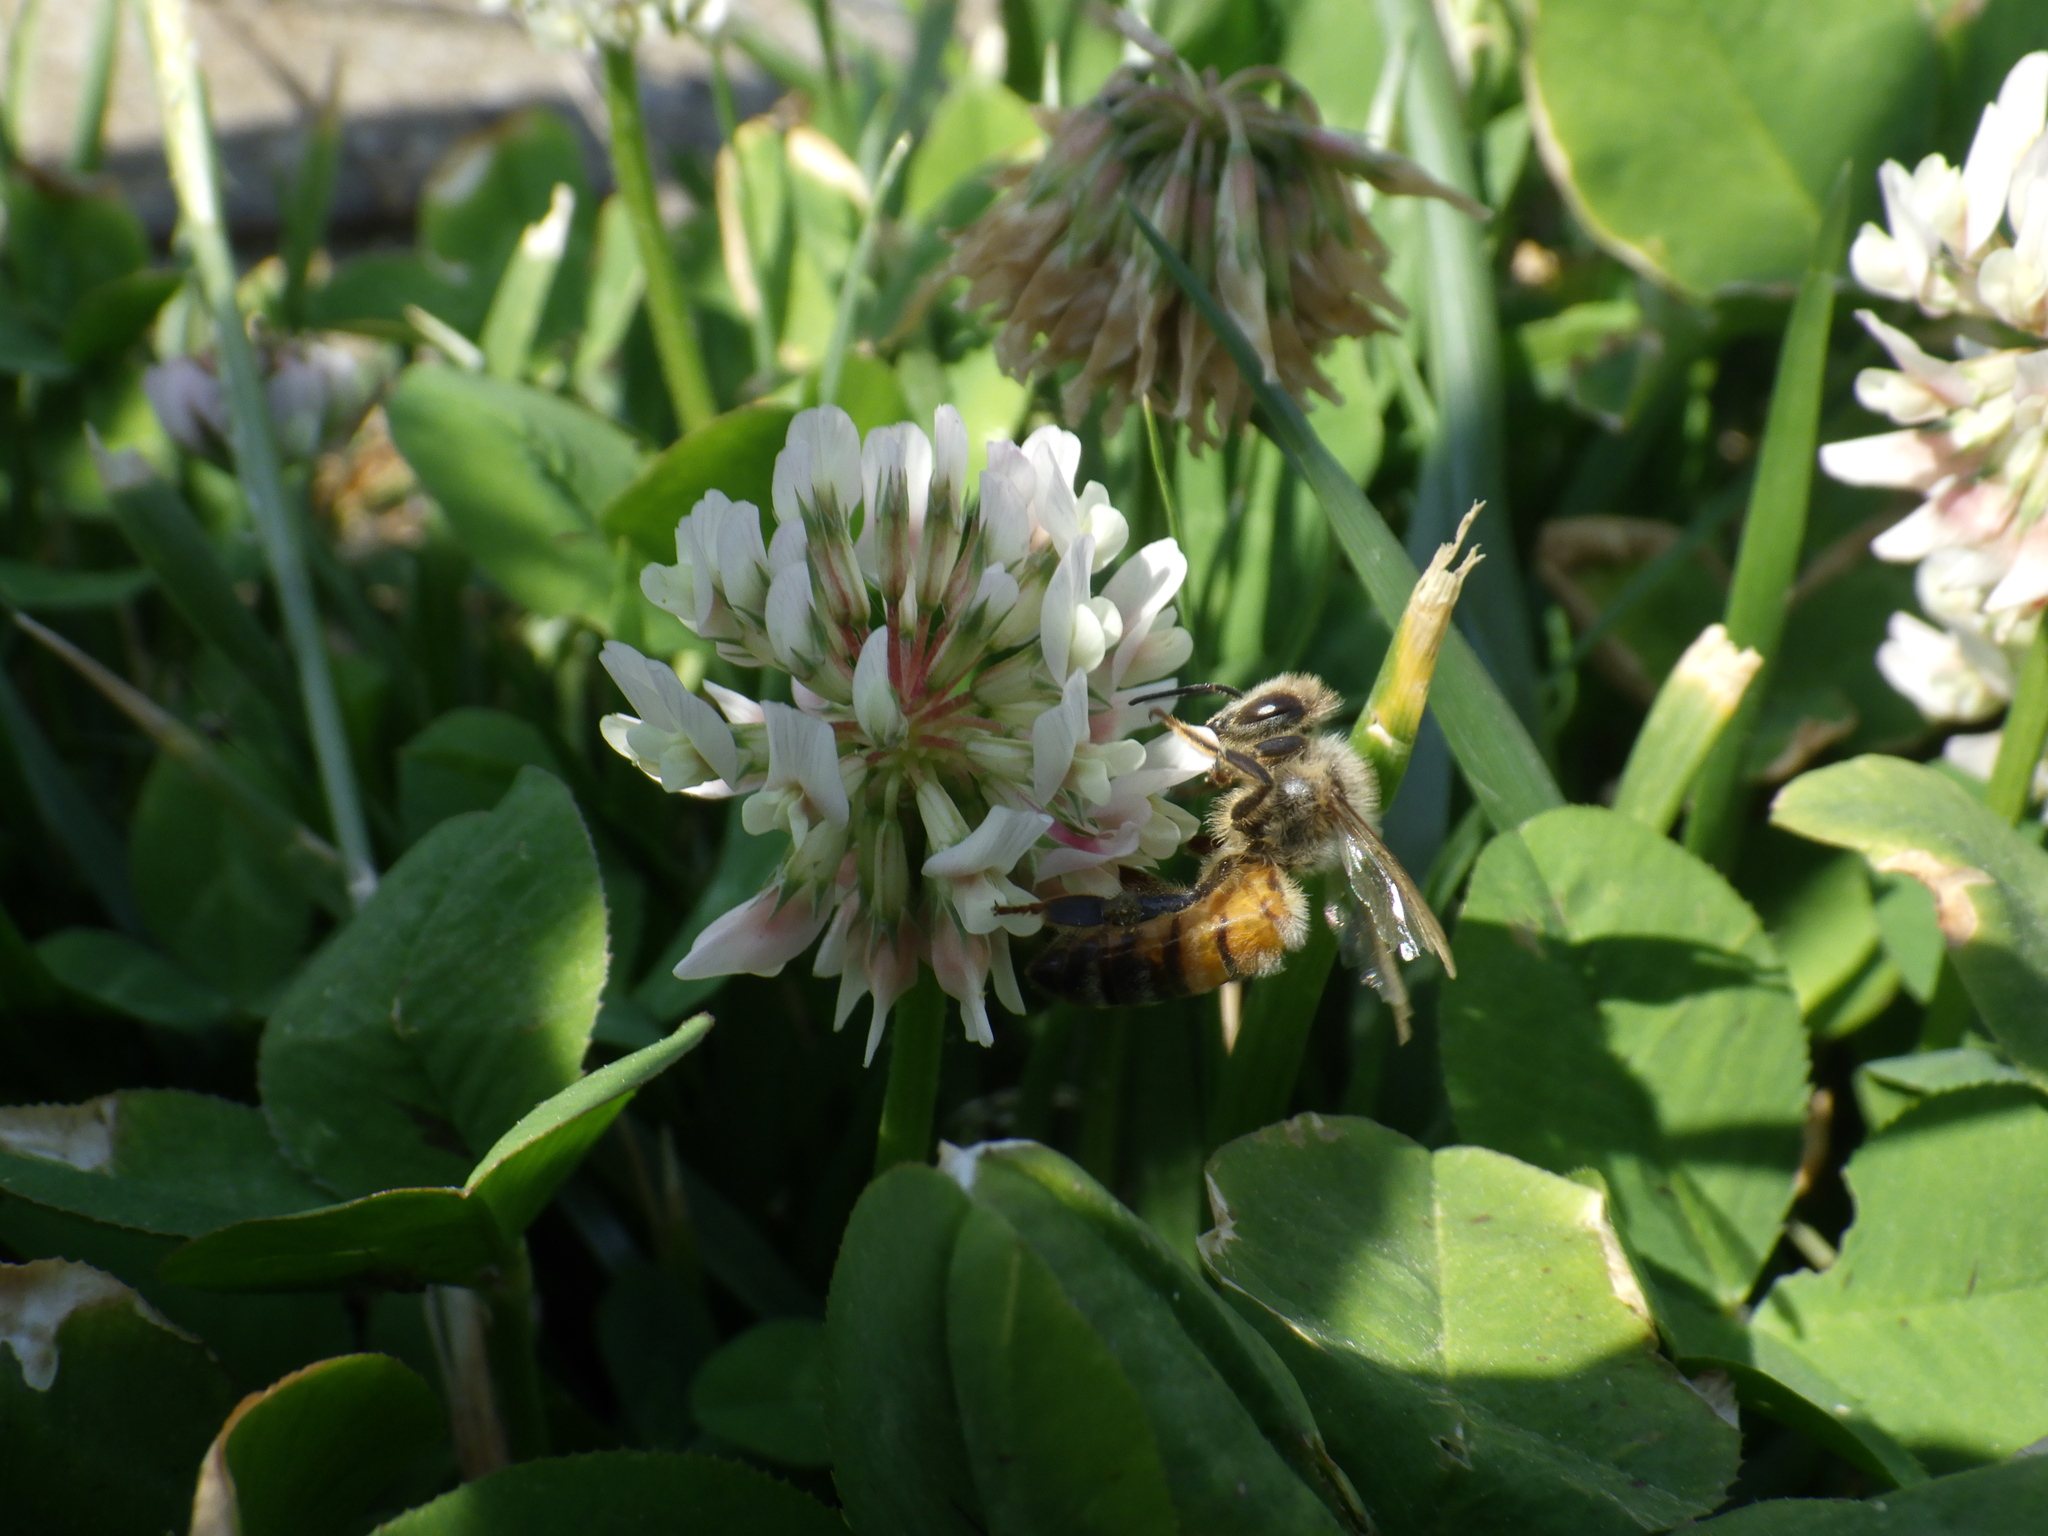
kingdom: Animalia
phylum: Arthropoda
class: Insecta
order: Hymenoptera
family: Apidae
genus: Apis
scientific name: Apis mellifera
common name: Honey bee
